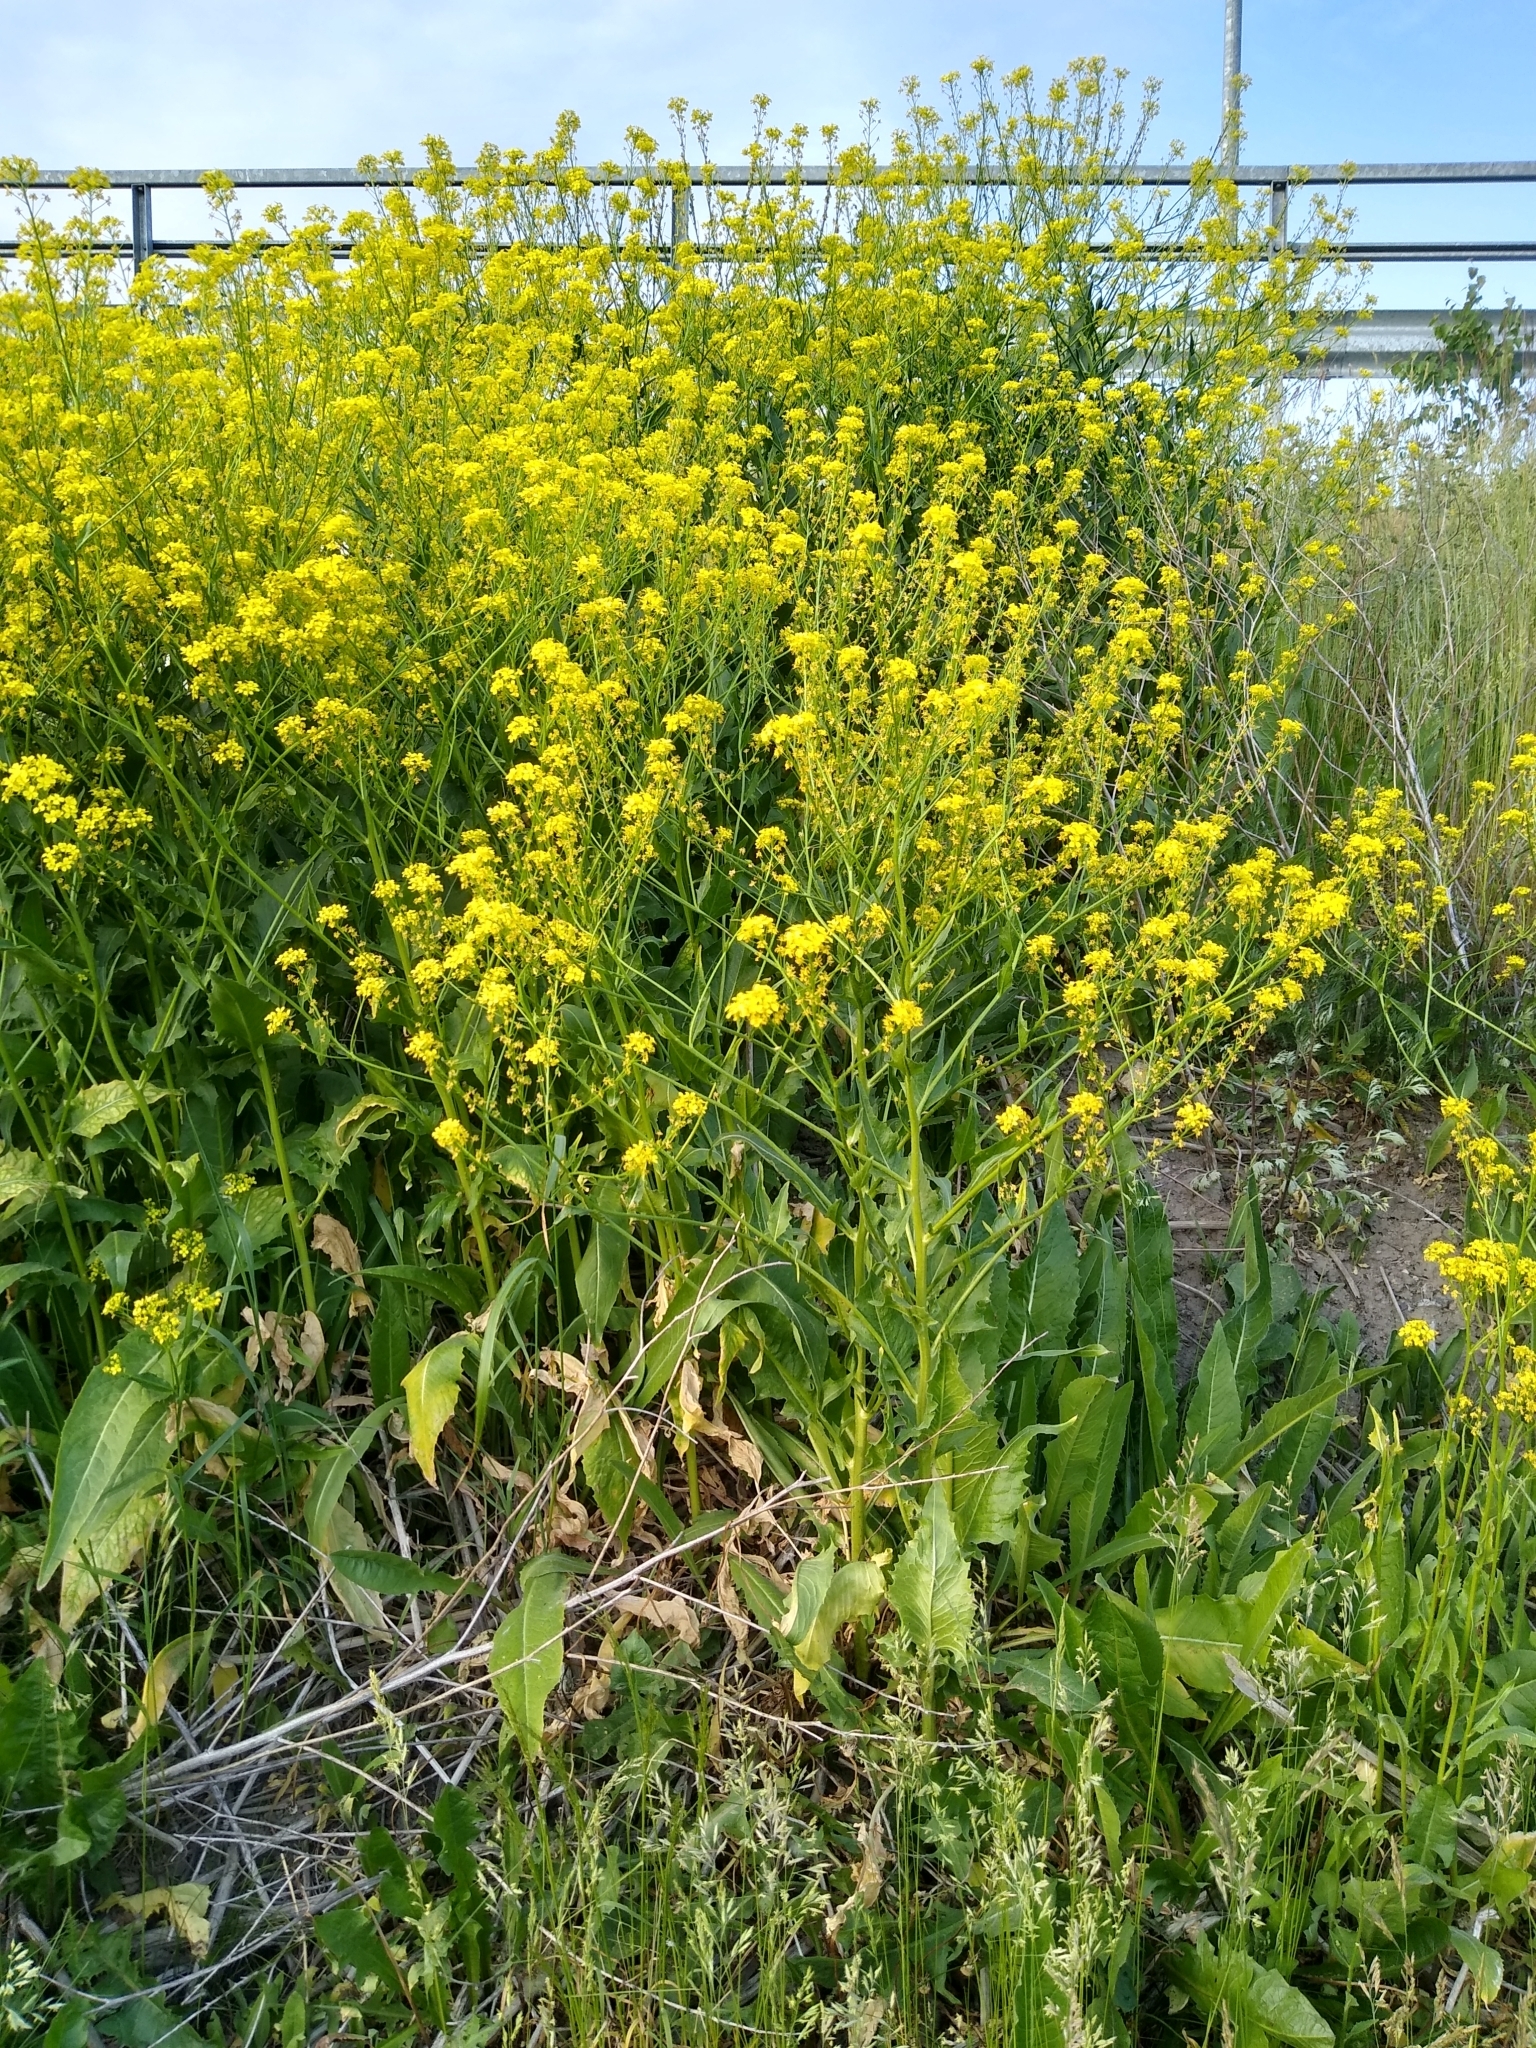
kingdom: Plantae
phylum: Tracheophyta
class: Magnoliopsida
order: Brassicales
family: Brassicaceae
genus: Bunias
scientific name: Bunias orientalis
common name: Warty-cabbage
